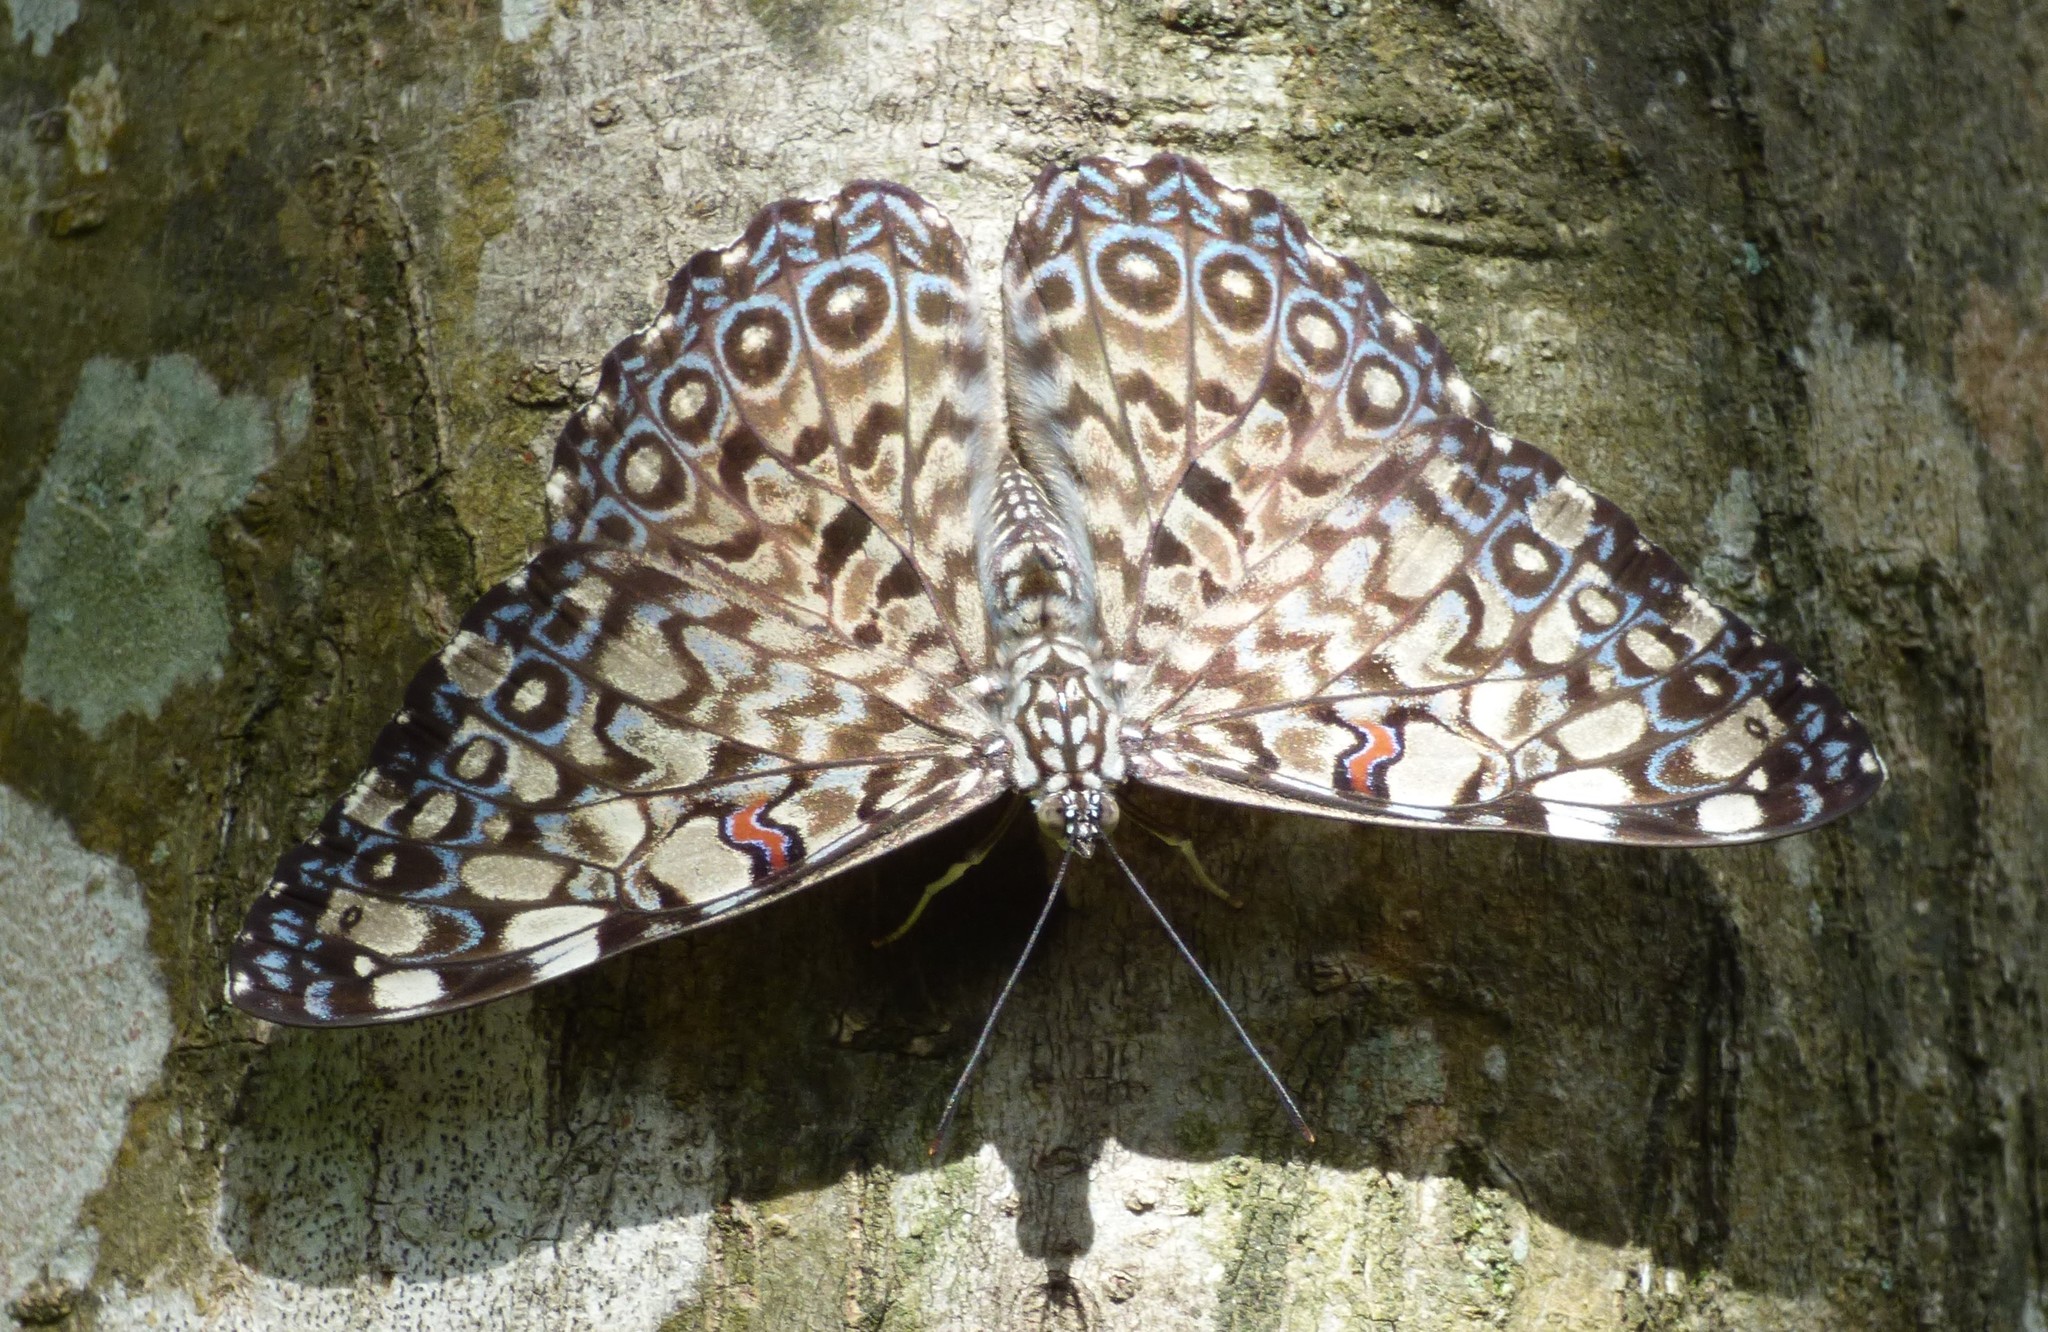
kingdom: Animalia
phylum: Arthropoda
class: Insecta
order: Lepidoptera
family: Nymphalidae
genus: Hamadryas
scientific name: Hamadryas feronia
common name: Variable cracker
